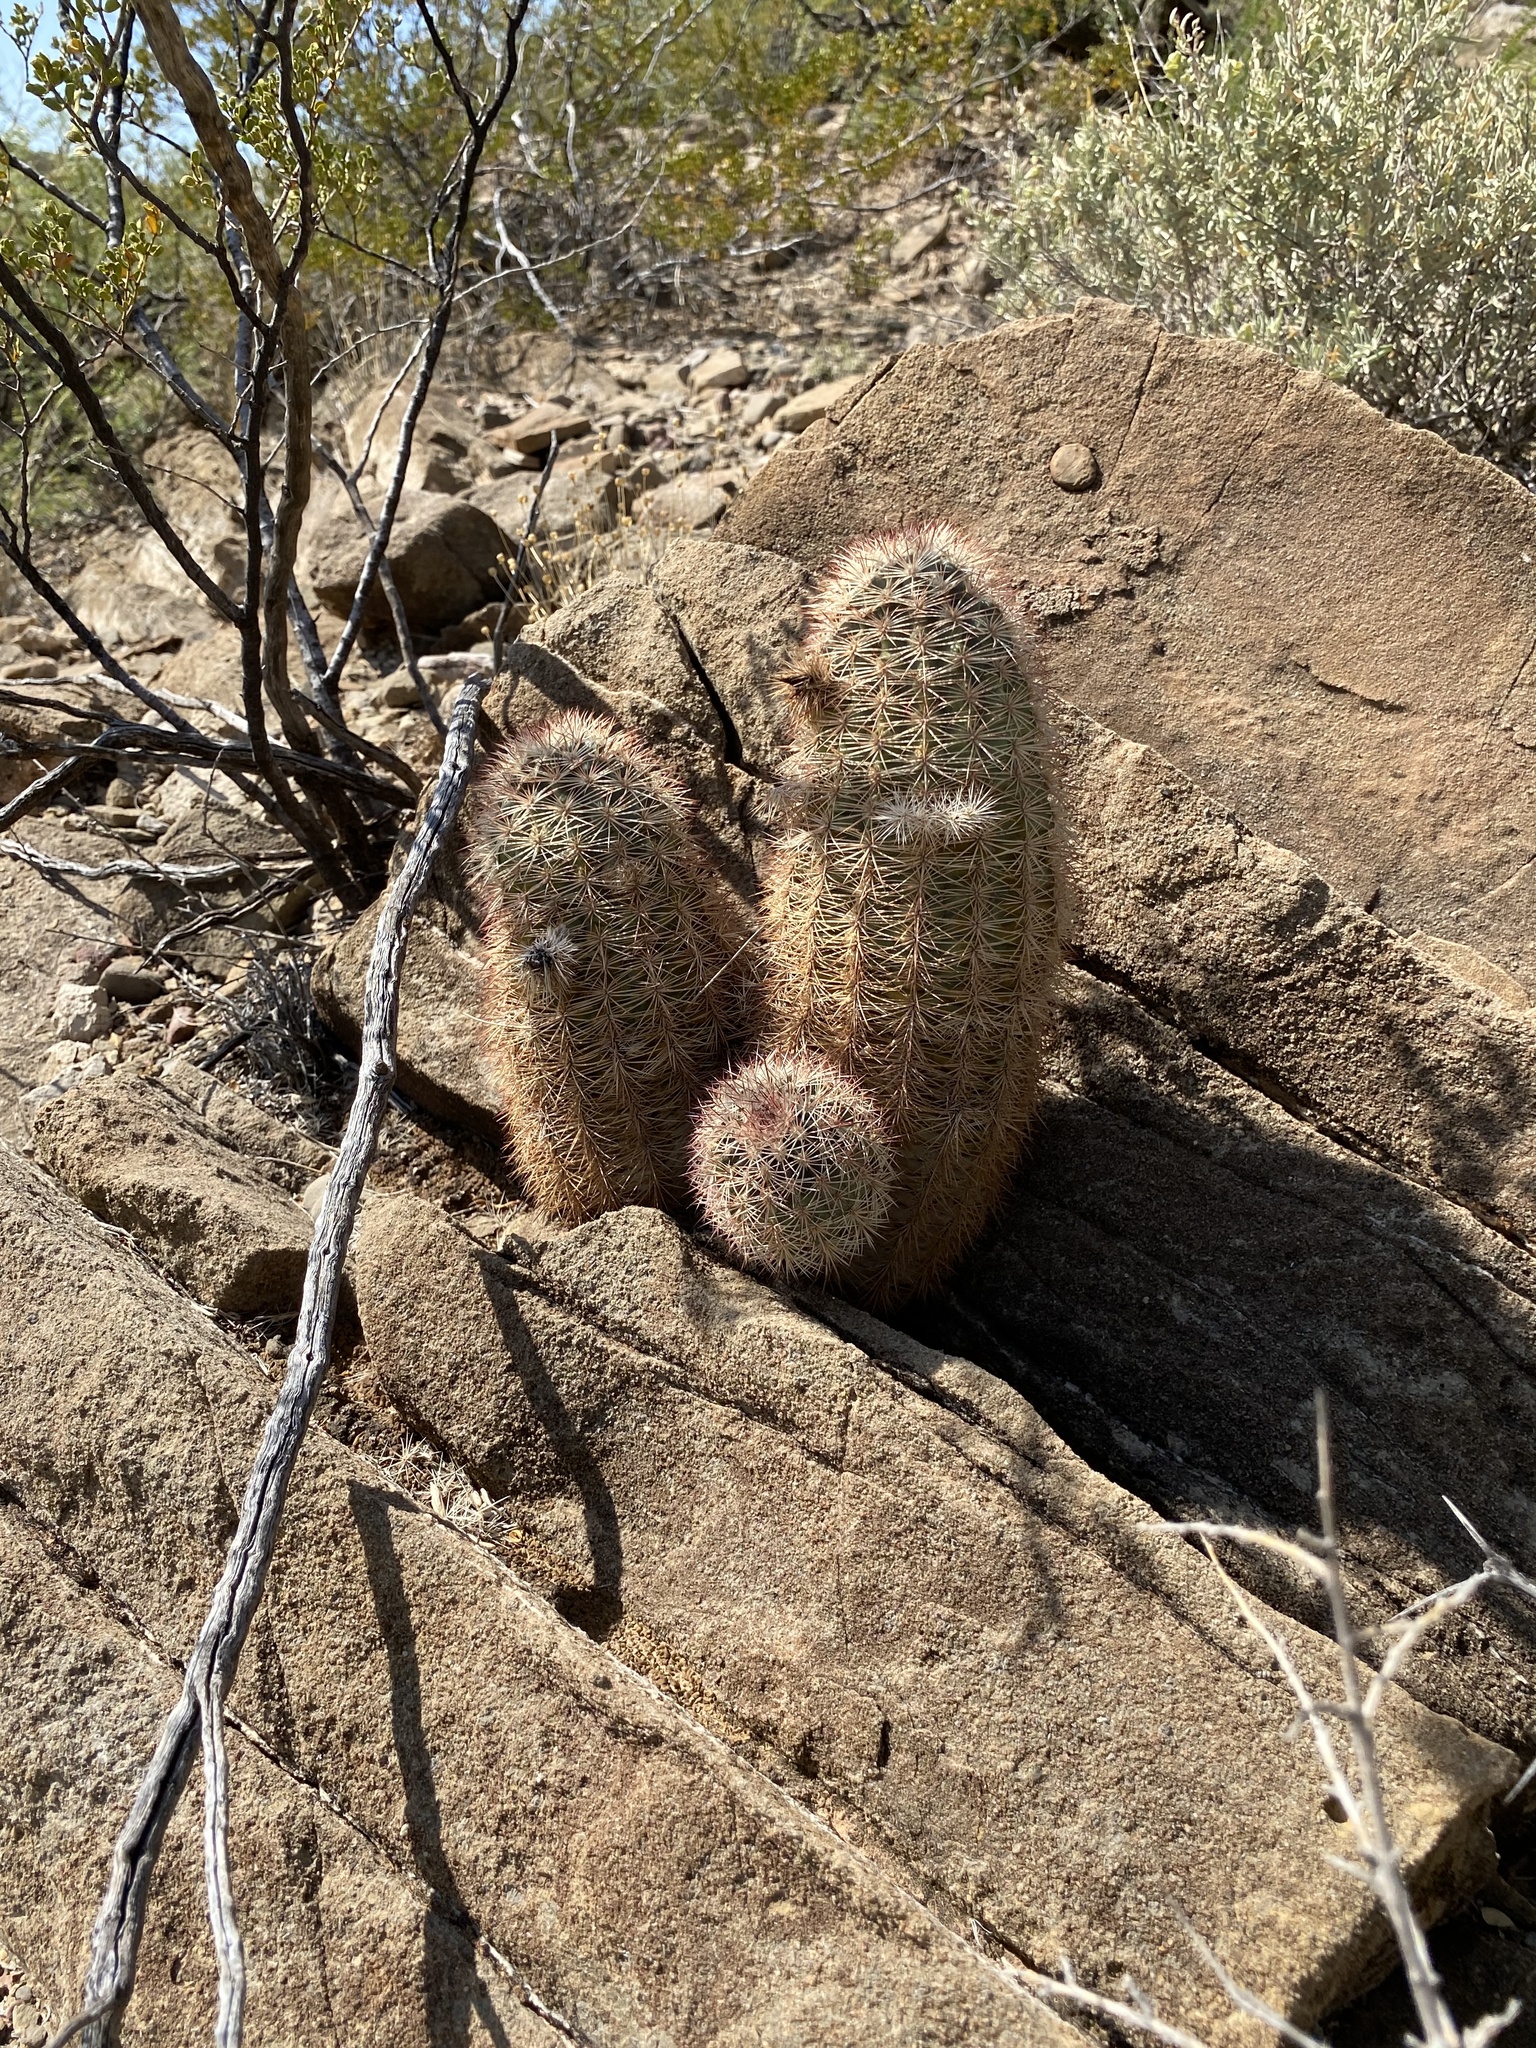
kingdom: Plantae
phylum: Tracheophyta
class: Magnoliopsida
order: Caryophyllales
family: Cactaceae
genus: Echinocereus
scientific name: Echinocereus dasyacanthus
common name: Spiny hedgehog cactus
